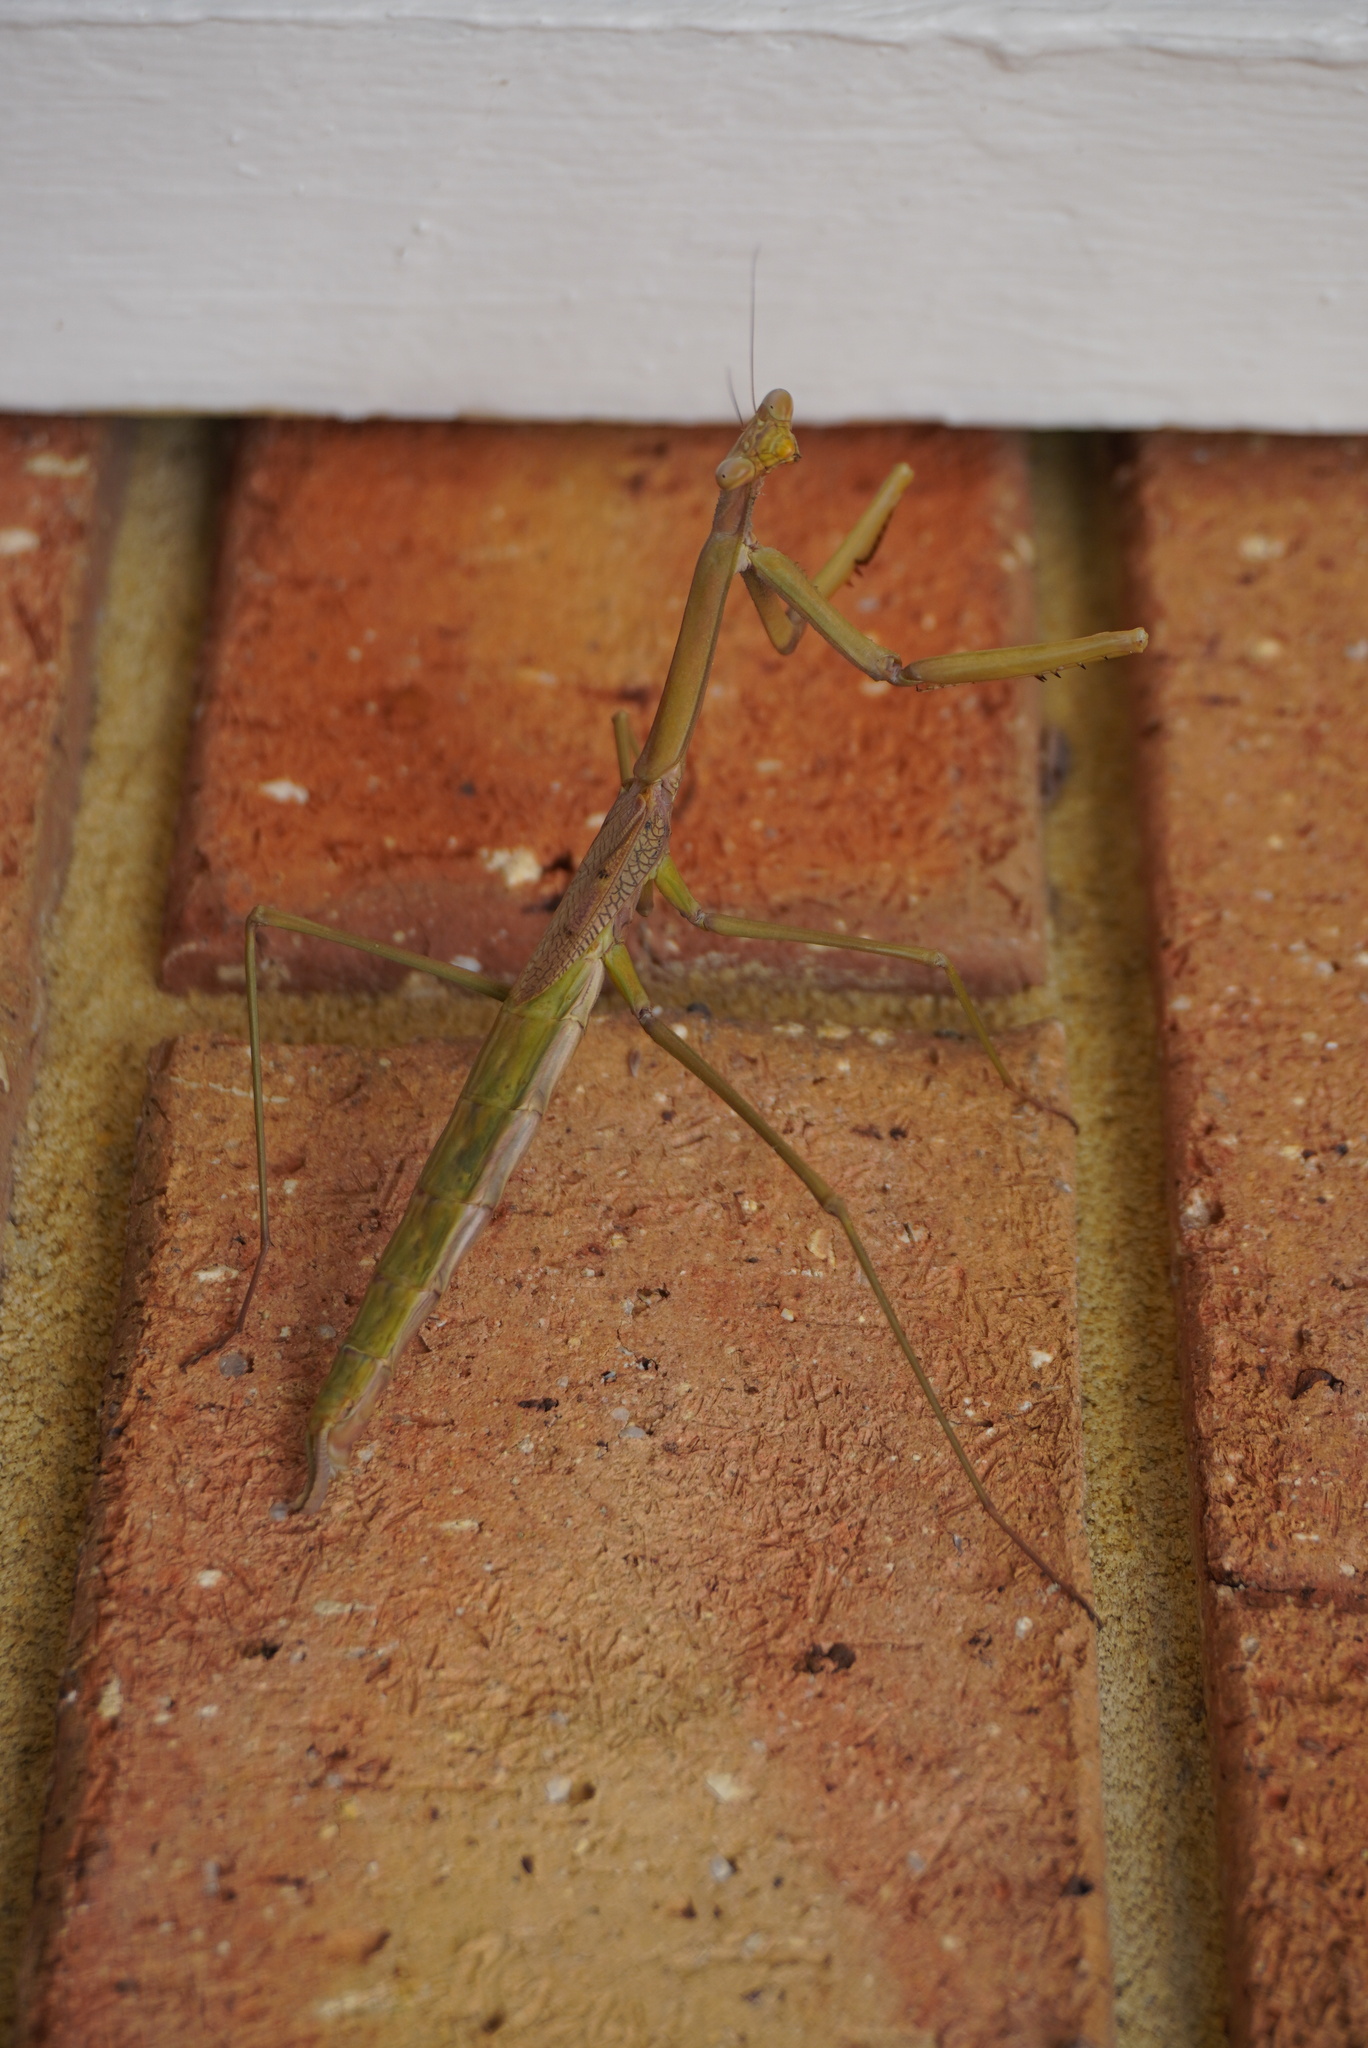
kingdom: Animalia
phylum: Arthropoda
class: Insecta
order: Mantodea
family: Mantidae
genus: Archimantis
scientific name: Archimantis sobrina
